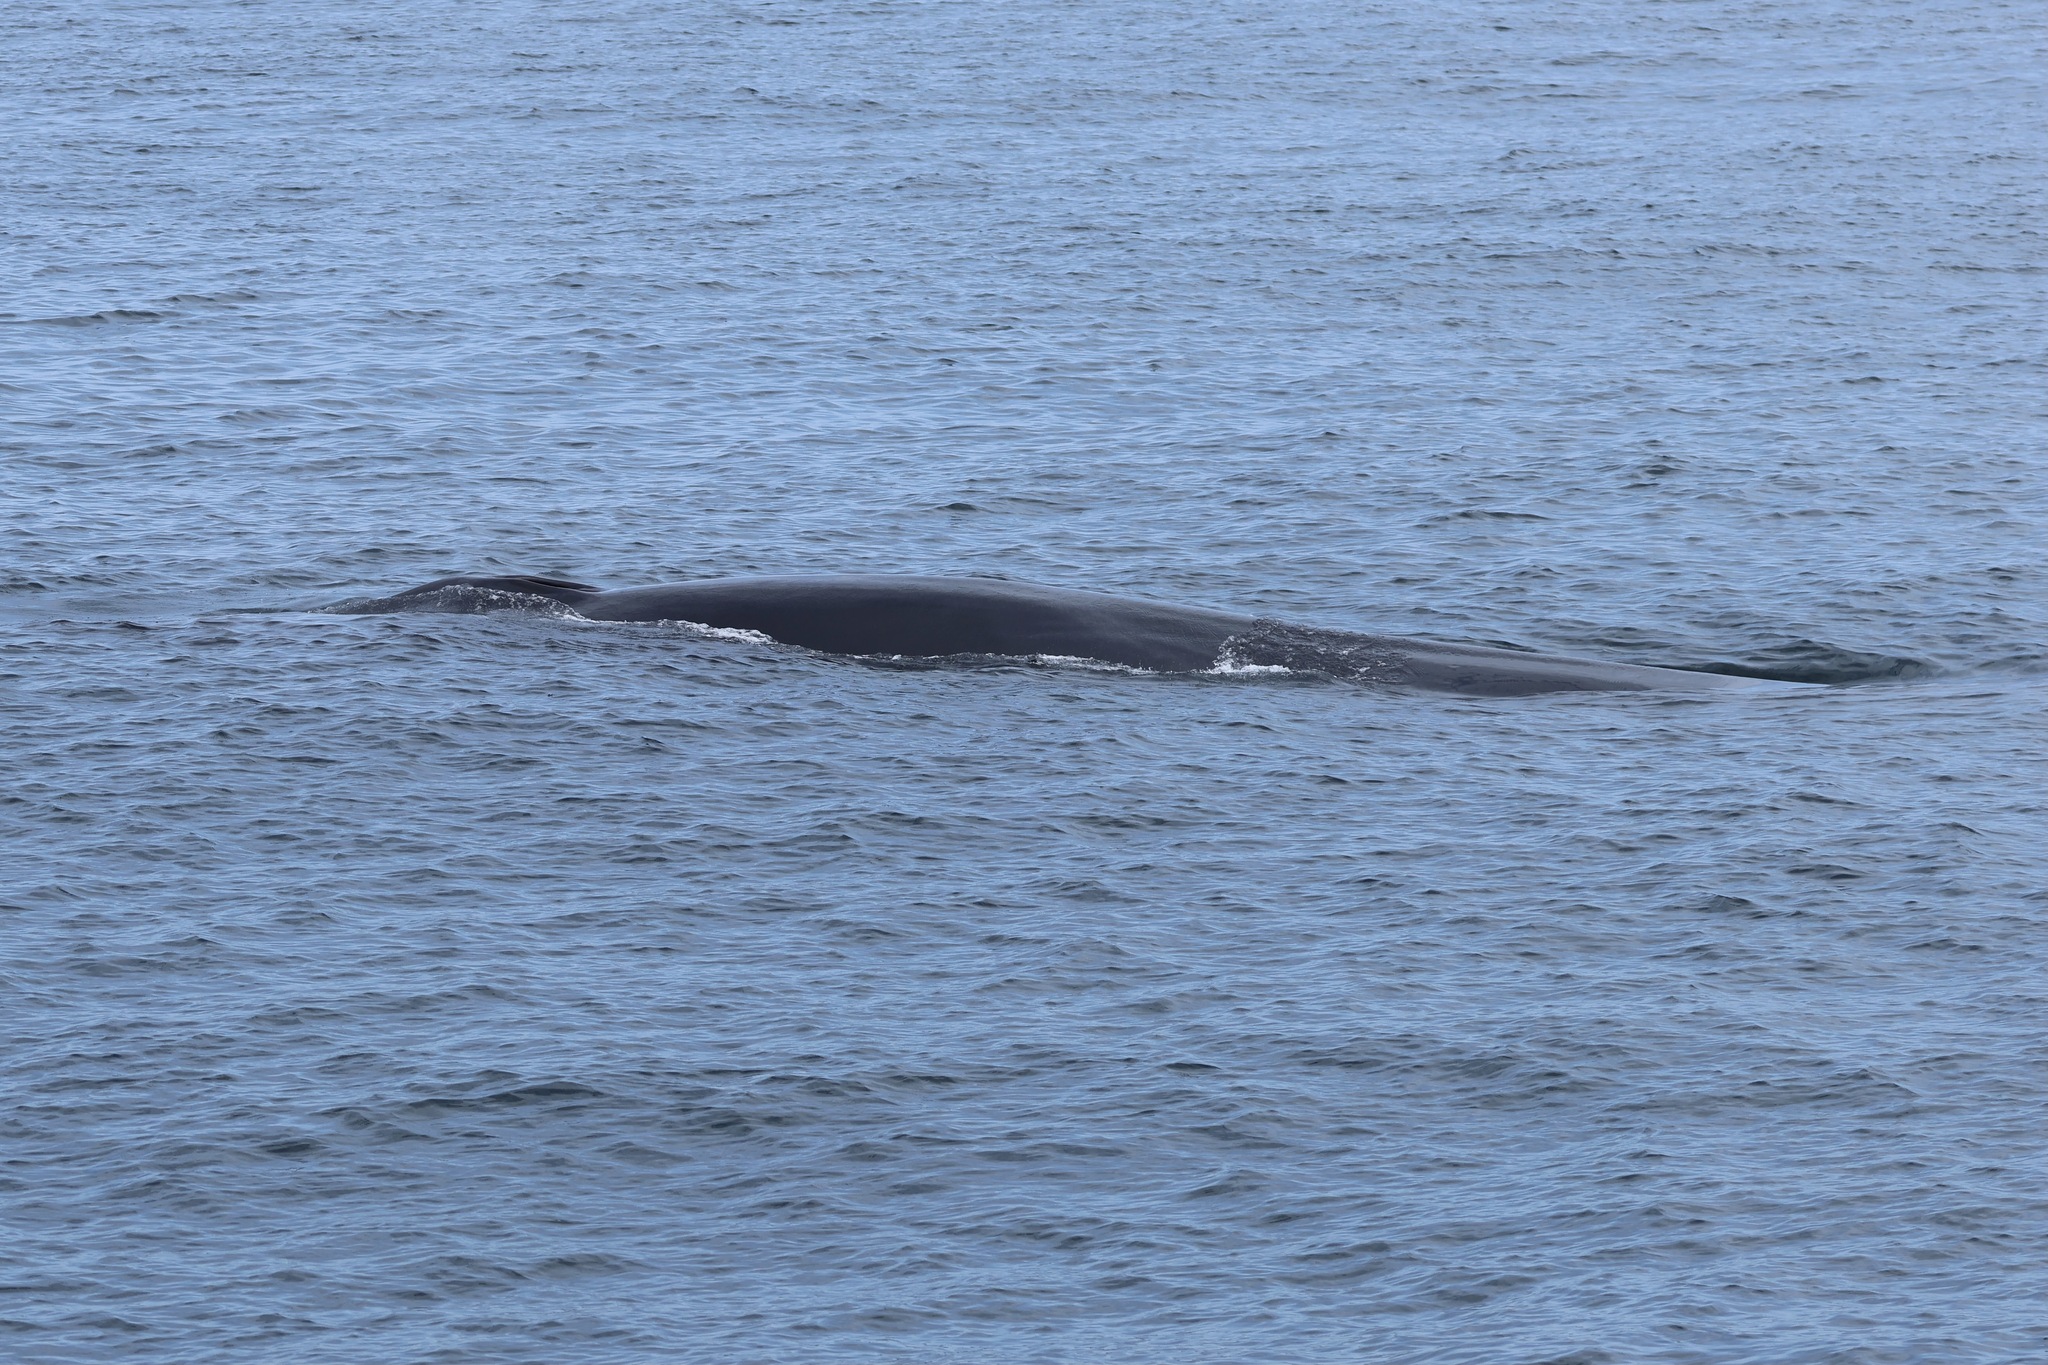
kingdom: Animalia
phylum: Chordata
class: Mammalia
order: Cetacea
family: Balaenopteridae
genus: Balaenoptera
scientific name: Balaenoptera physalus
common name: Fin whale
